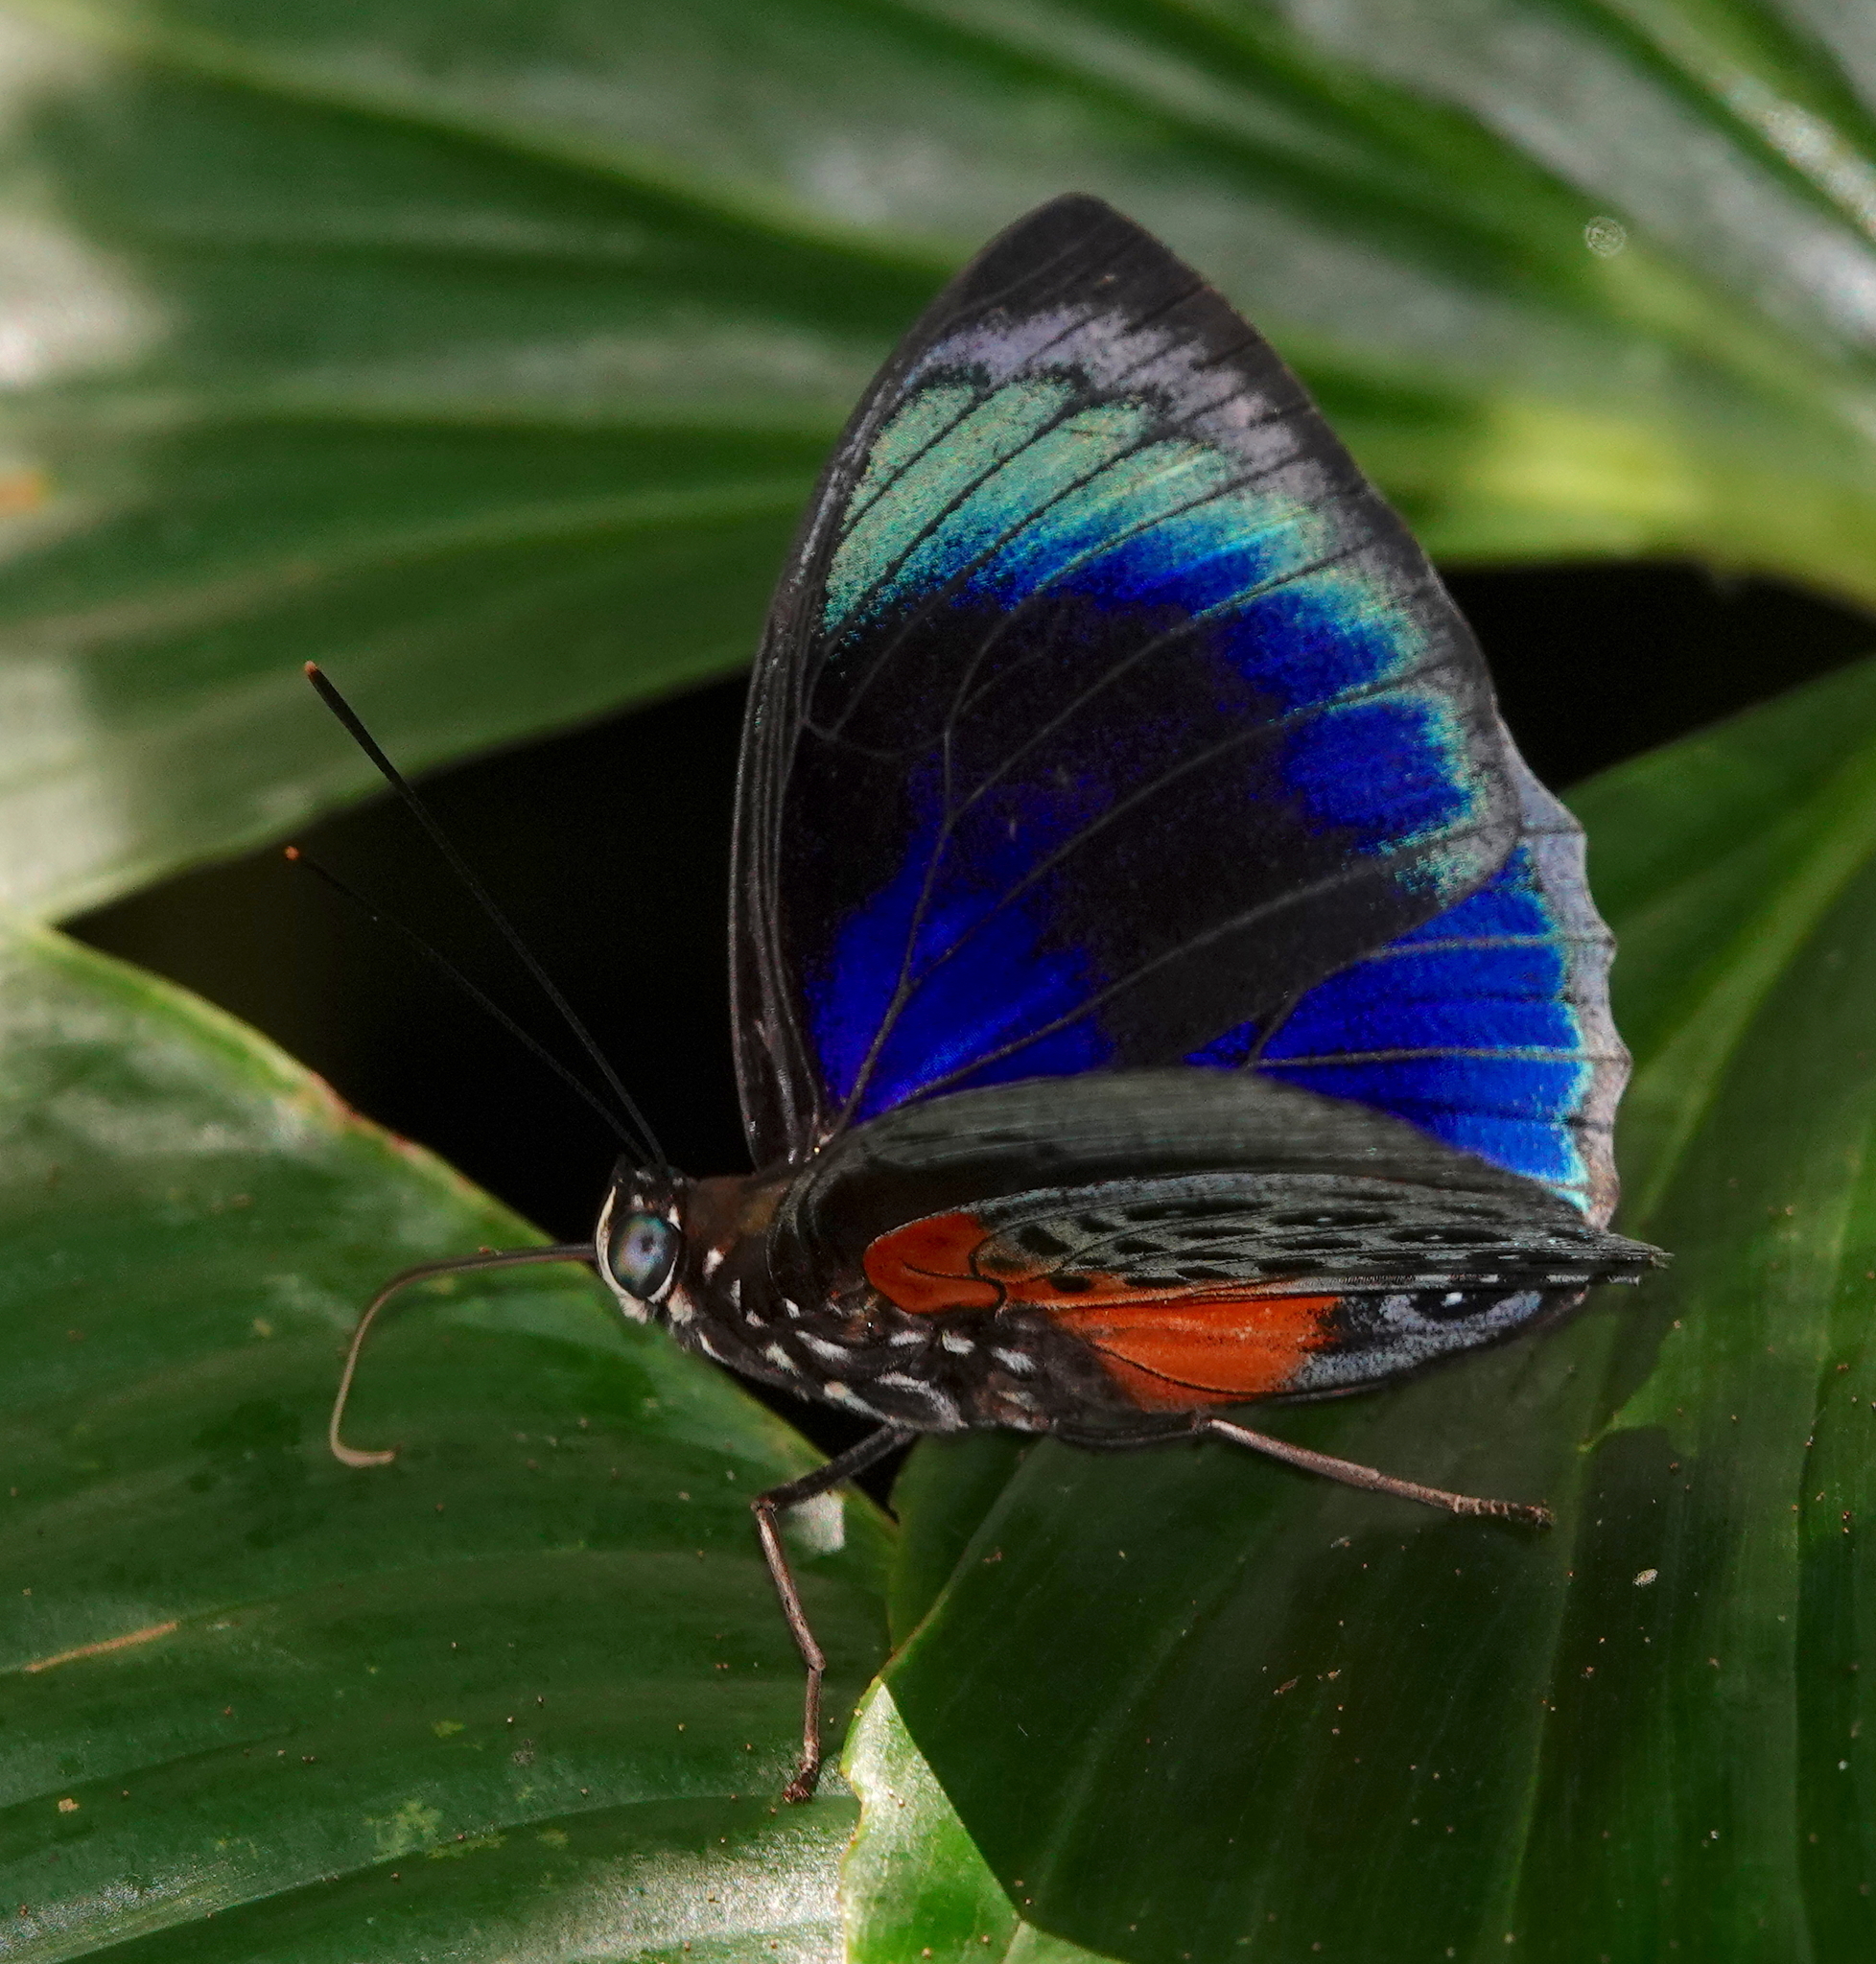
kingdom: Animalia
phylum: Arthropoda
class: Insecta
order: Lepidoptera
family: Nymphalidae
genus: Prepona
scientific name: Prepona hewitsonius
